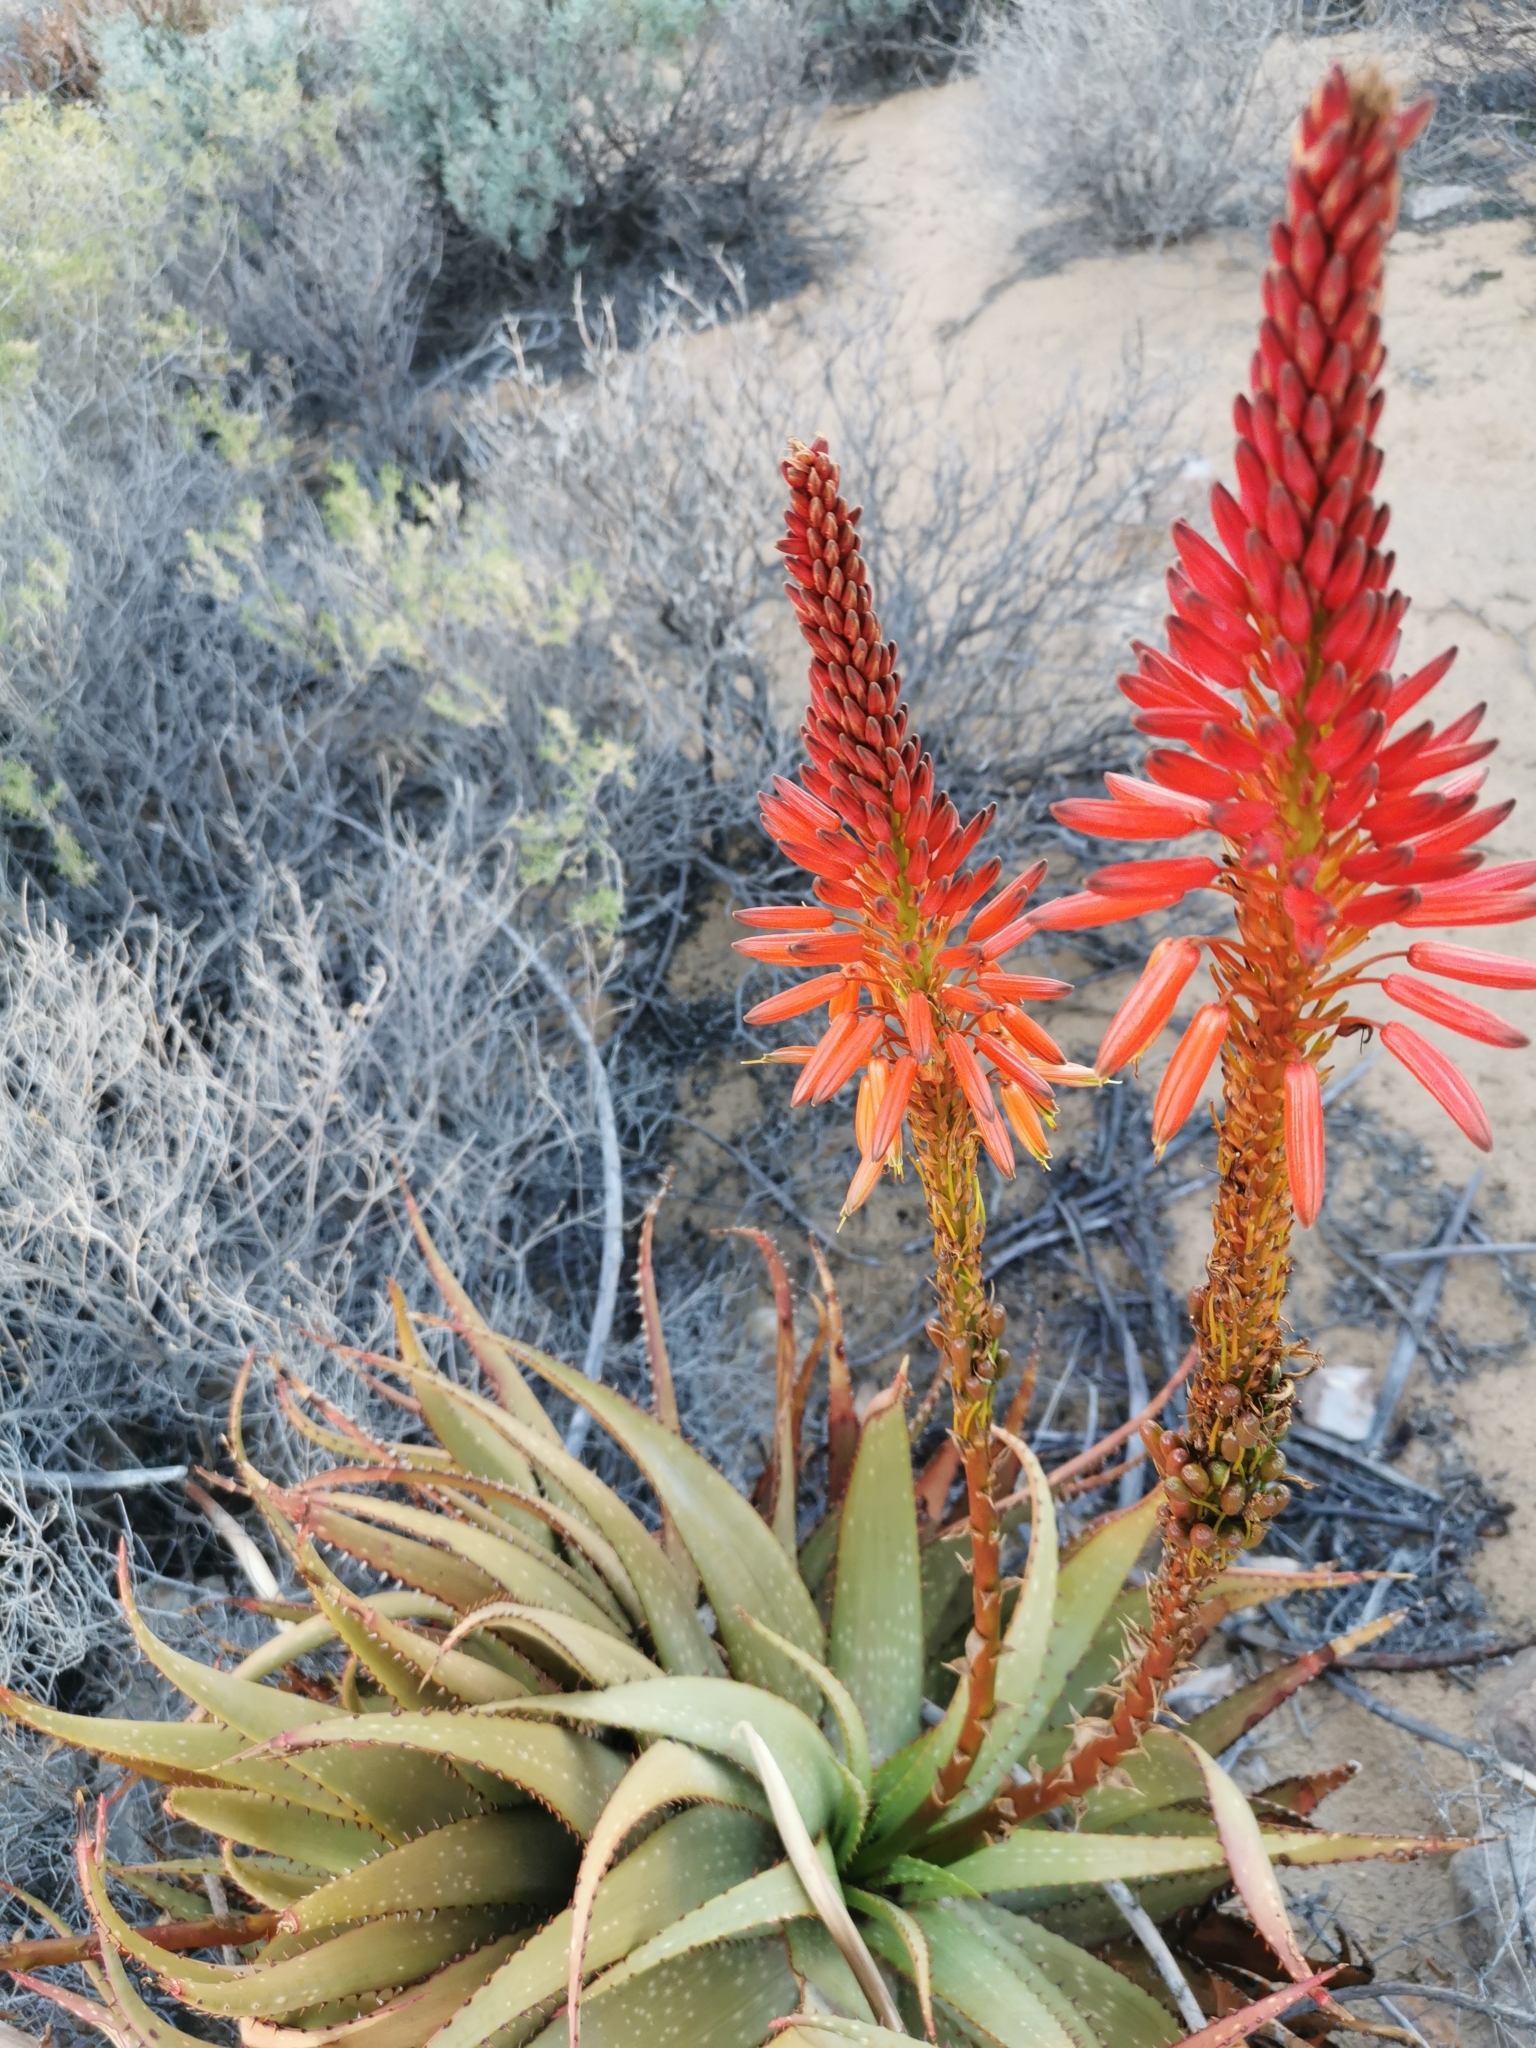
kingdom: Plantae
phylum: Tracheophyta
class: Liliopsida
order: Asparagales
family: Asphodelaceae
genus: Aloe
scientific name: Aloe microstigma
